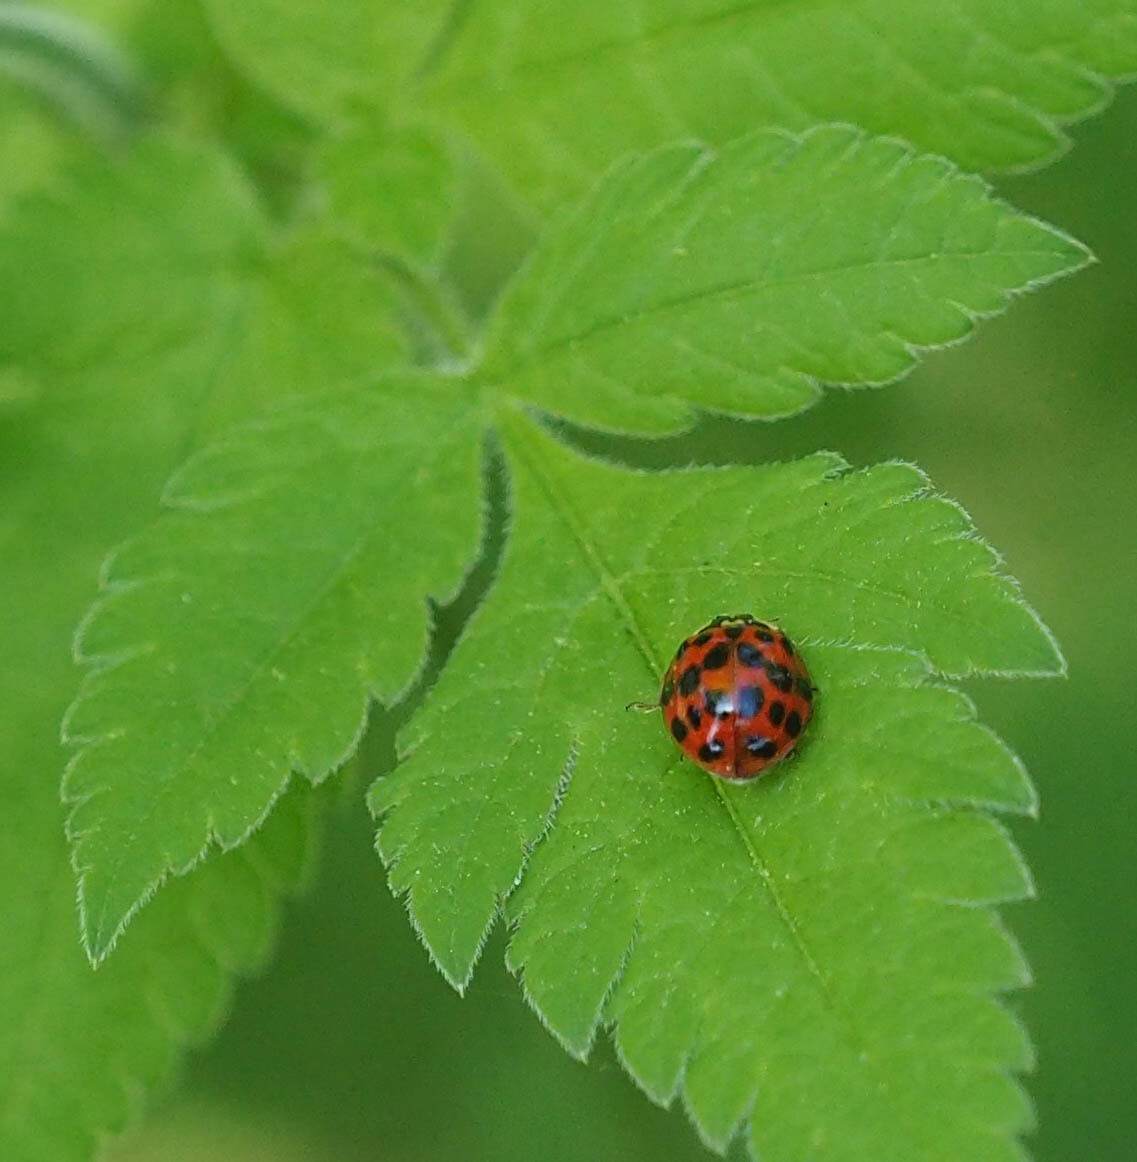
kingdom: Animalia
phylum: Arthropoda
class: Insecta
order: Coleoptera
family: Coccinellidae
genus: Harmonia
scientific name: Harmonia axyridis
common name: Harlequin ladybird
